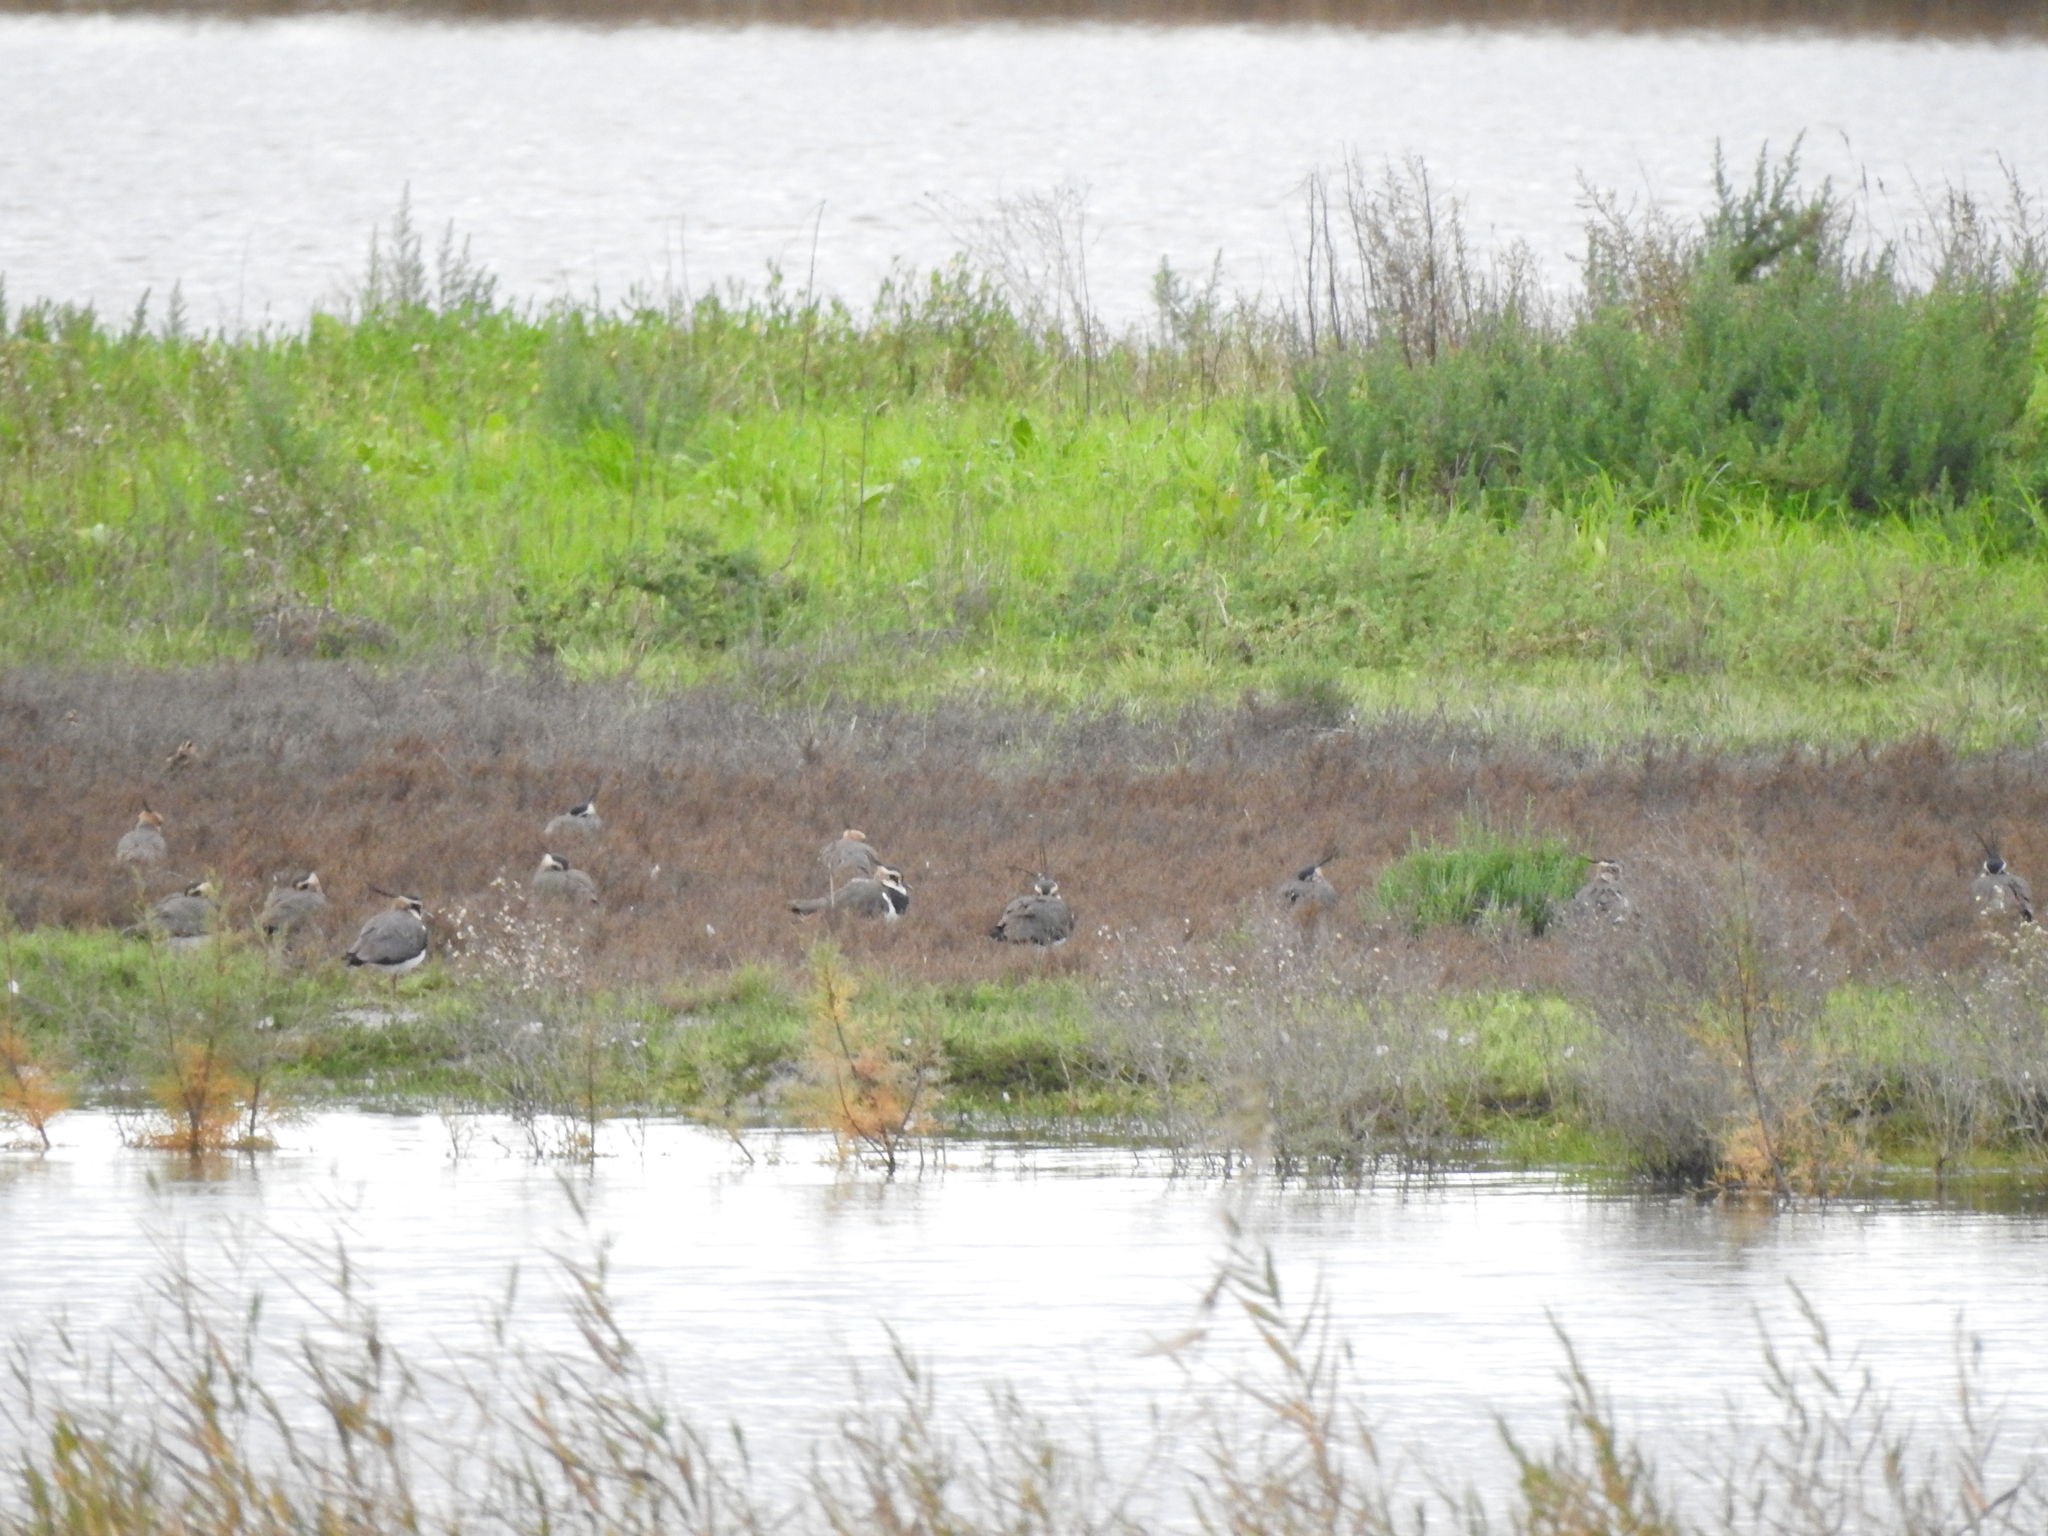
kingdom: Animalia
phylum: Chordata
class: Aves
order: Charadriiformes
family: Charadriidae
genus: Vanellus
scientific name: Vanellus vanellus
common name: Northern lapwing
